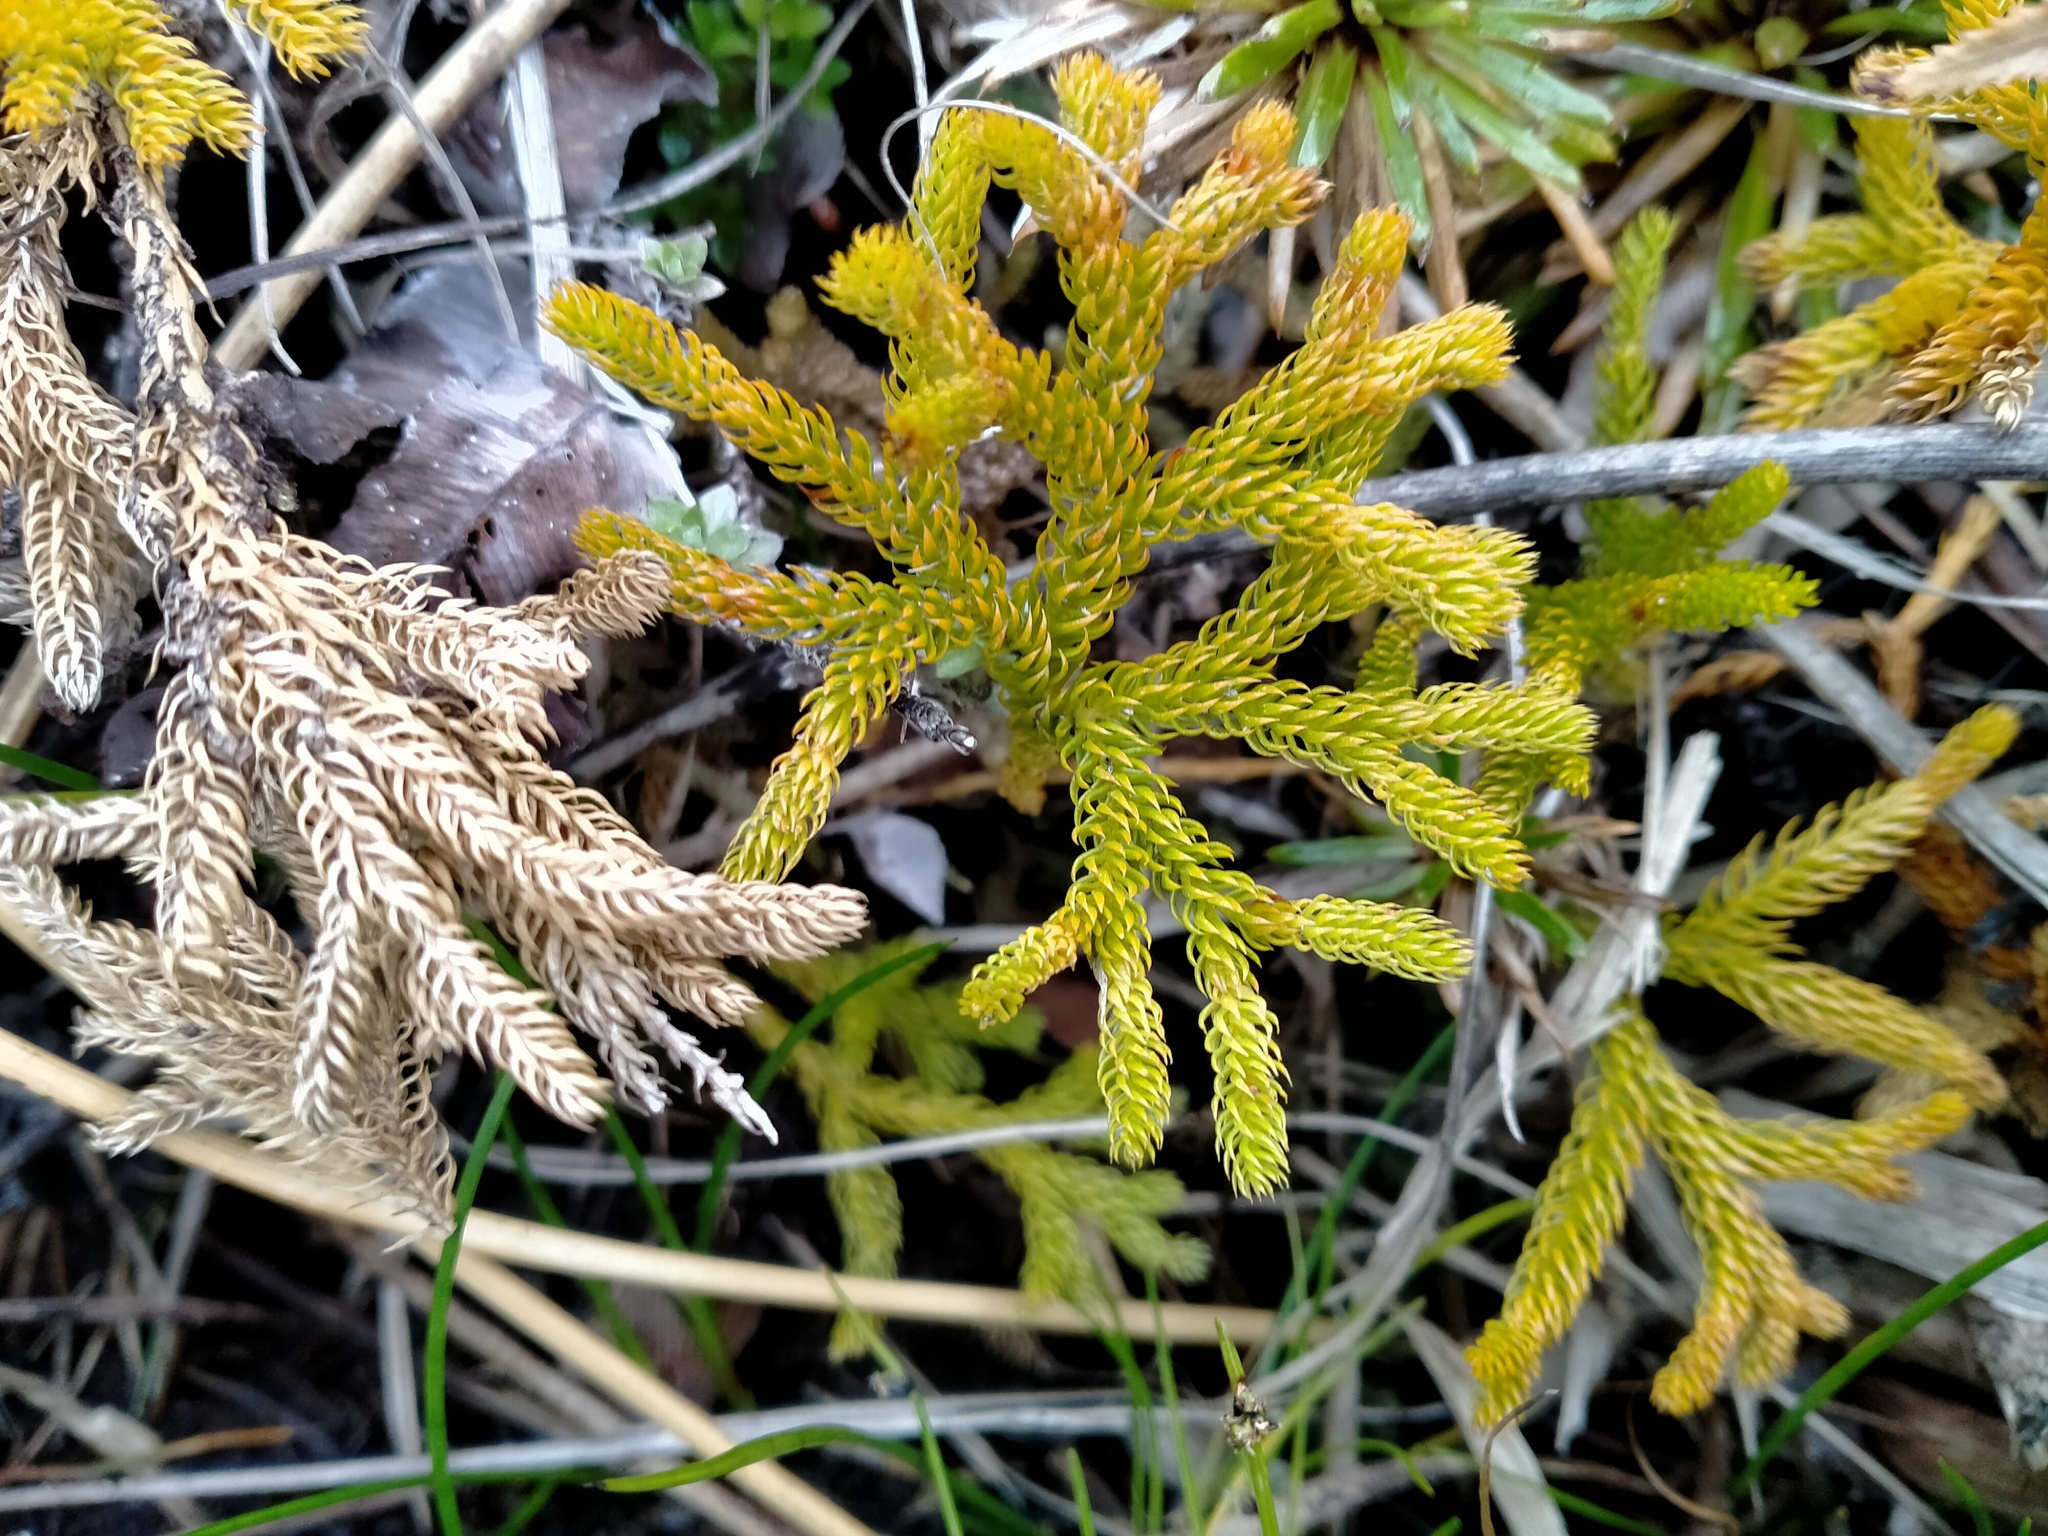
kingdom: Plantae
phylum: Tracheophyta
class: Lycopodiopsida
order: Lycopodiales
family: Lycopodiaceae
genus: Austrolycopodium
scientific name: Austrolycopodium fastigiatum
